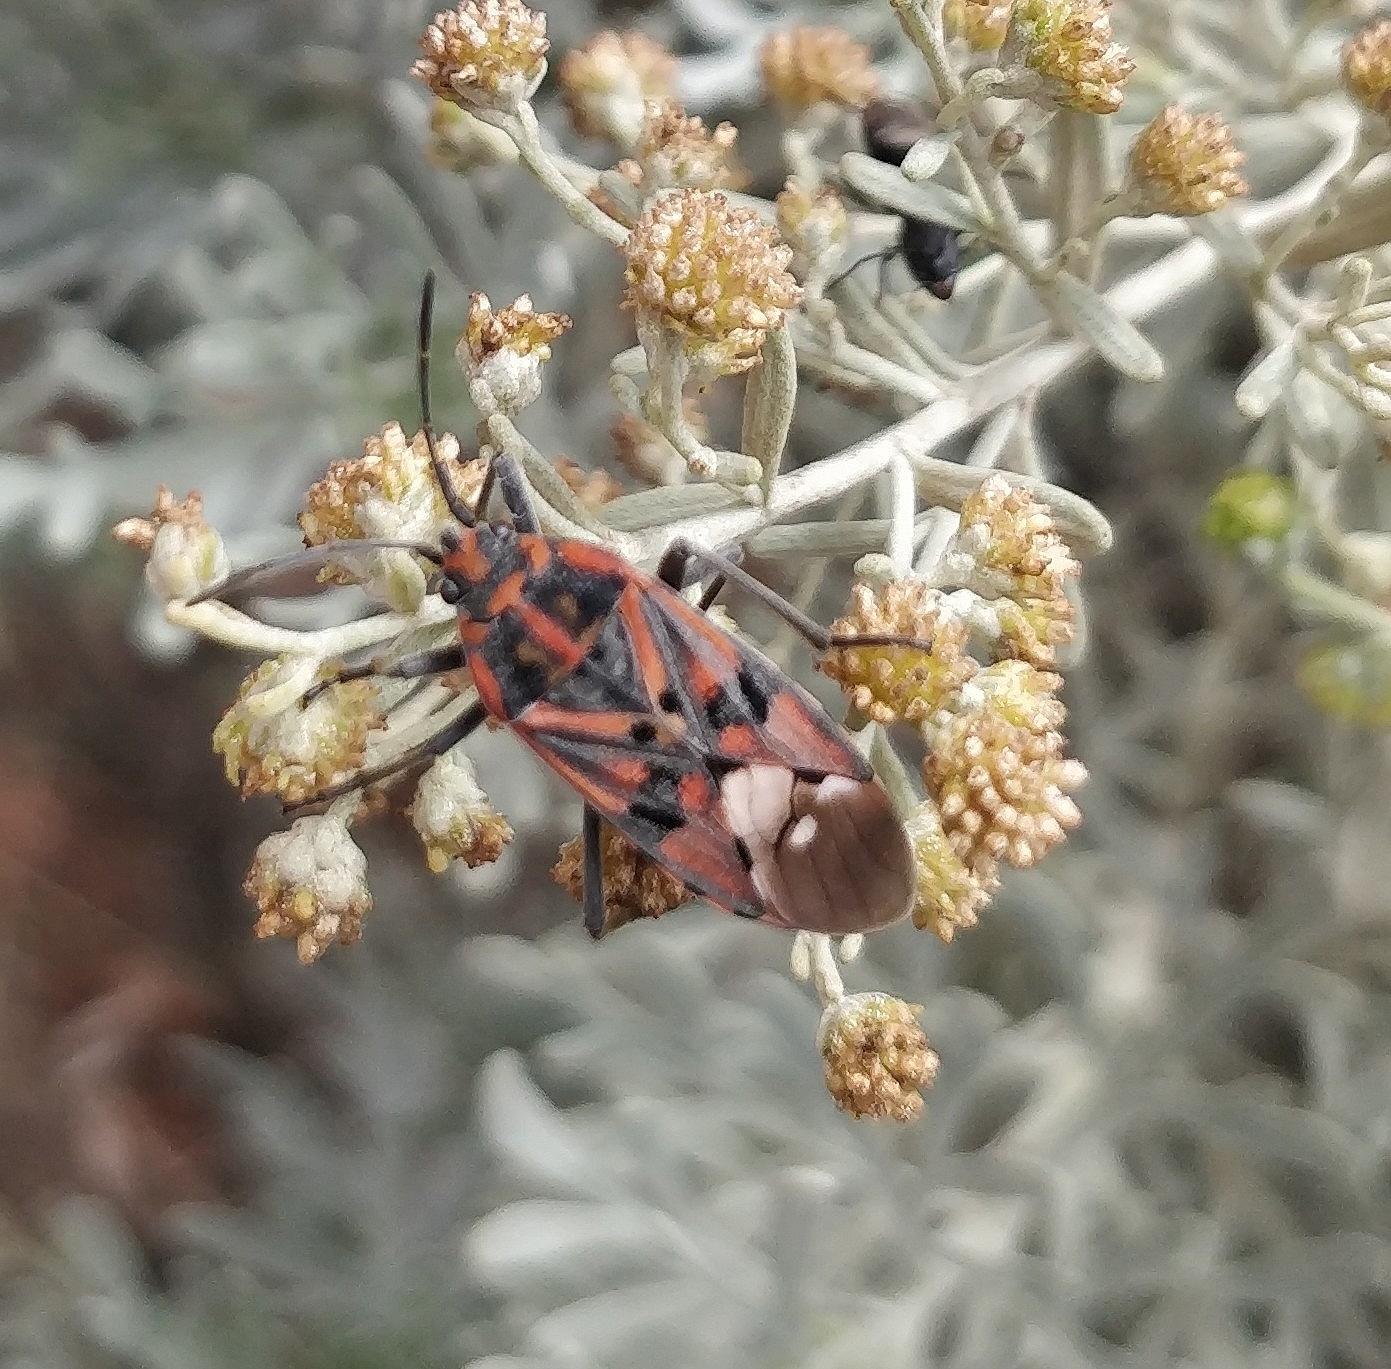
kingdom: Animalia
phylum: Arthropoda
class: Insecta
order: Hemiptera
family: Lygaeidae
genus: Spilostethus
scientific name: Spilostethus pandurus
